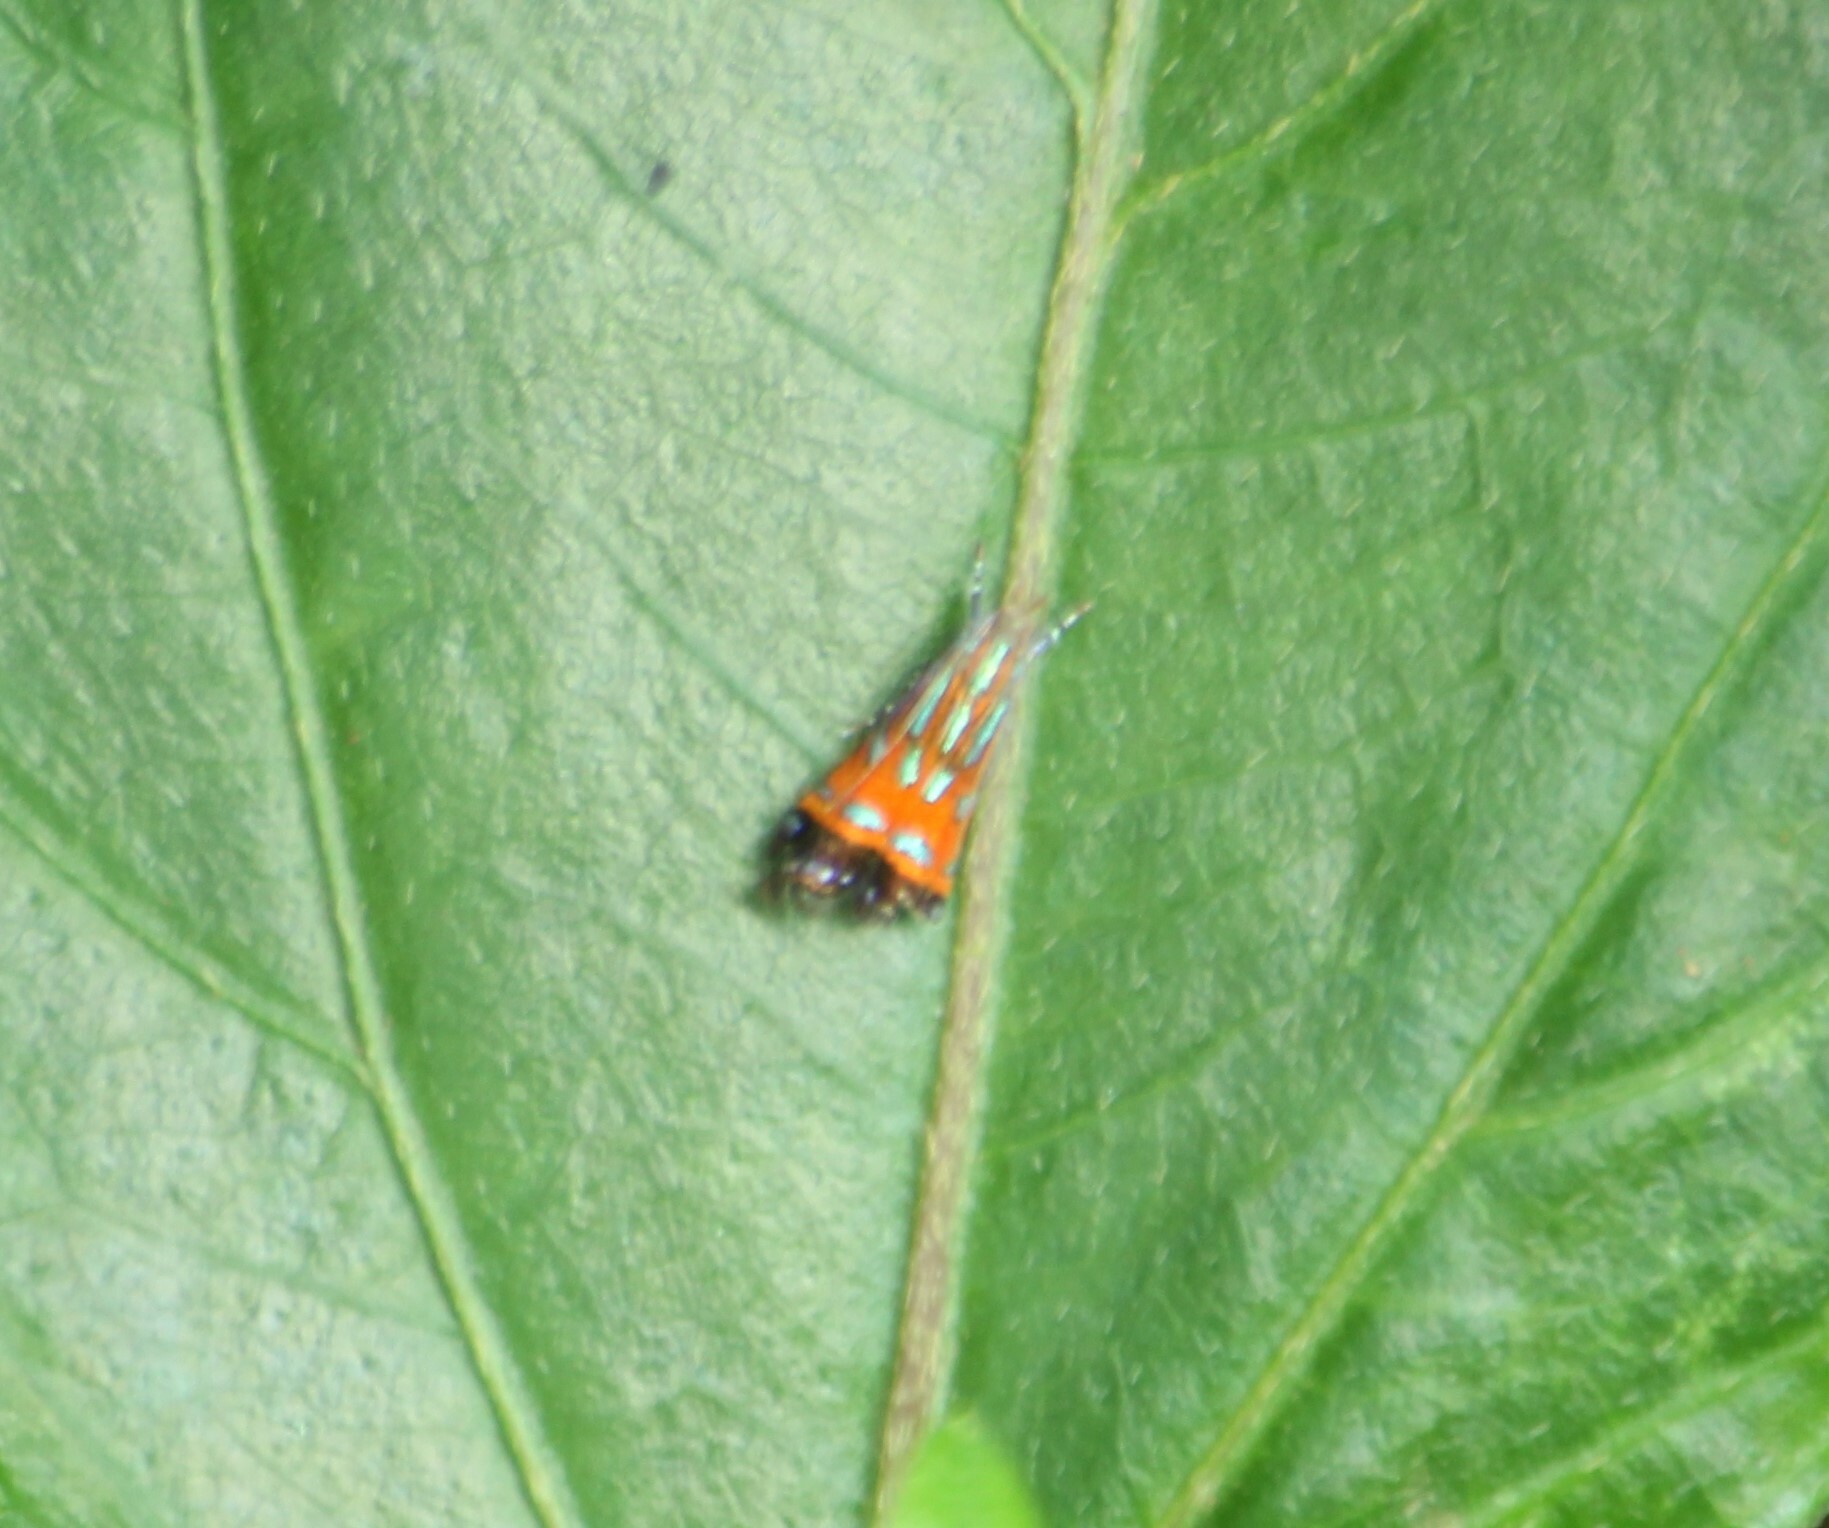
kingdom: Animalia
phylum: Arthropoda
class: Insecta
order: Lepidoptera
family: Gelechiidae
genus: Tricyanaula
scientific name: Tricyanaula aurantiaca
